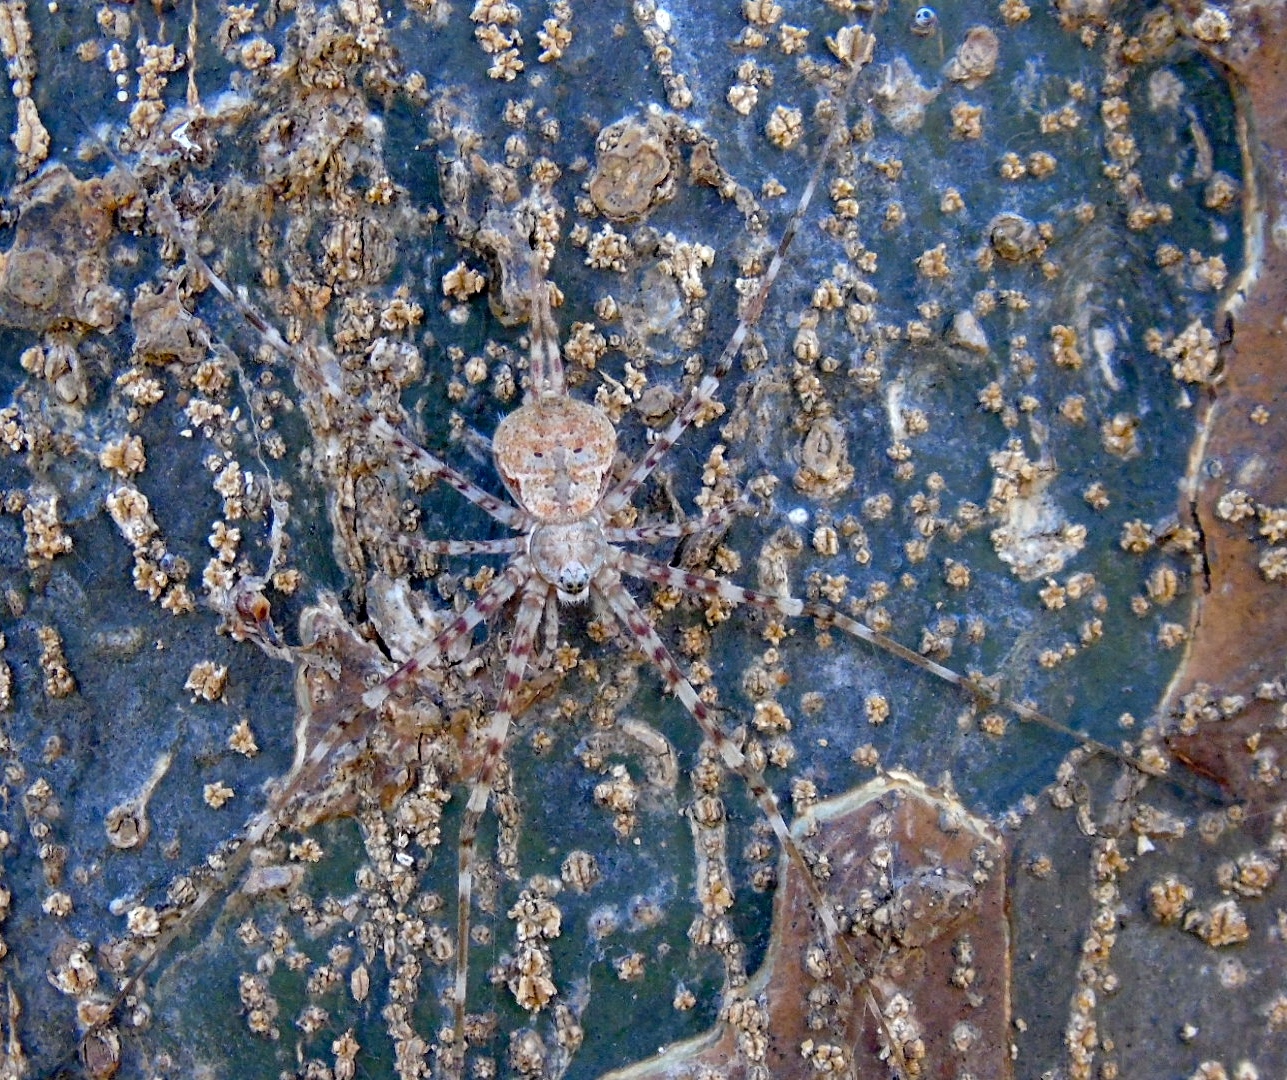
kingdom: Animalia
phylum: Arthropoda
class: Arachnida
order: Araneae
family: Hersiliidae
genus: Neotama
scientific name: Neotama mexicana
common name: Tree trunk spiders
